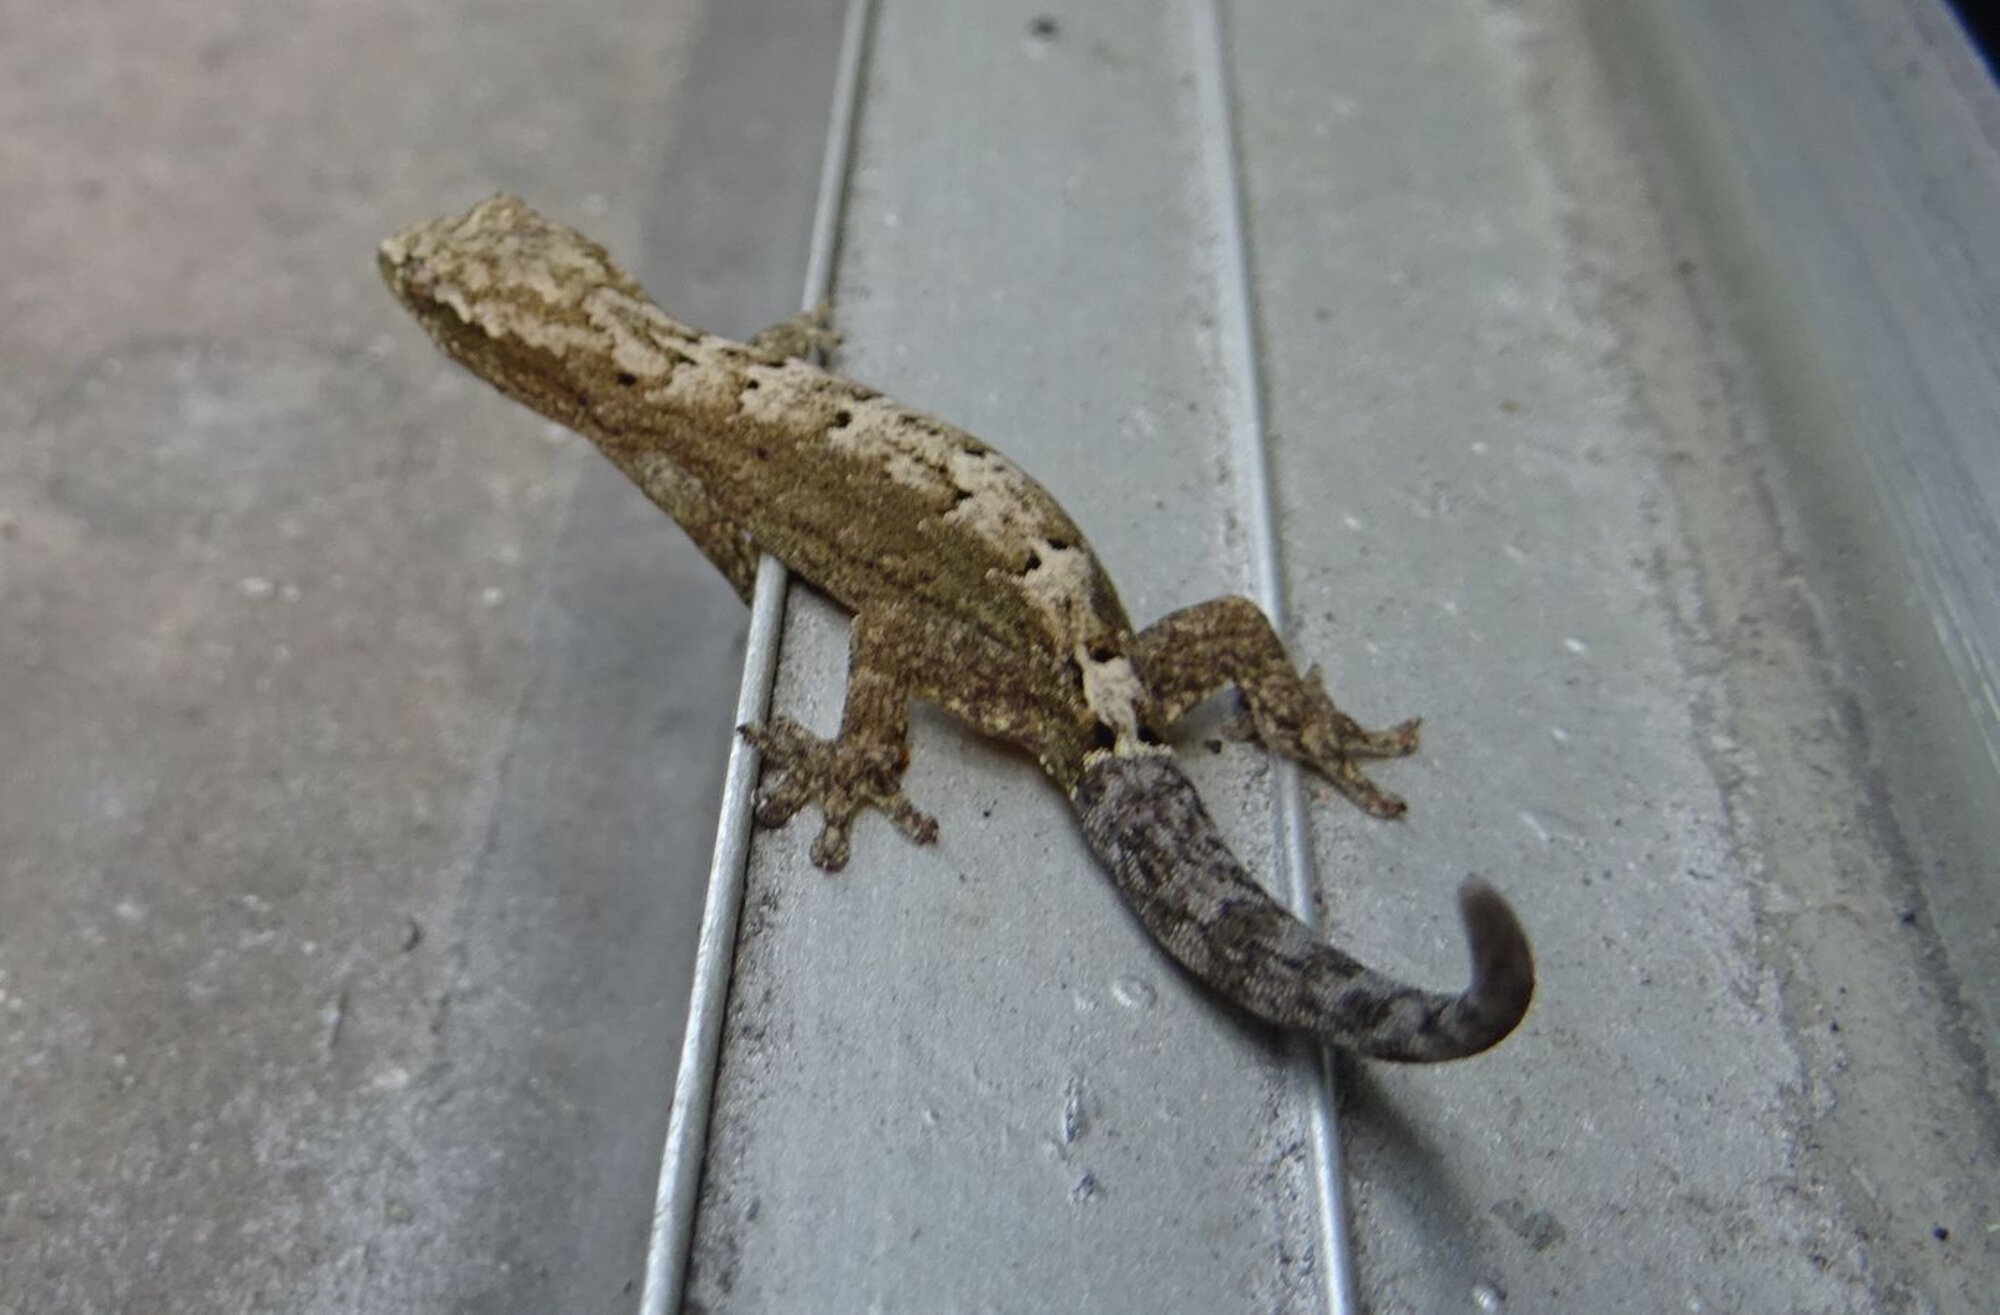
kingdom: Animalia
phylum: Chordata
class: Squamata
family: Gekkonidae
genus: Lepidodactylus
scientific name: Lepidodactylus lugubris
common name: Mourning gecko
